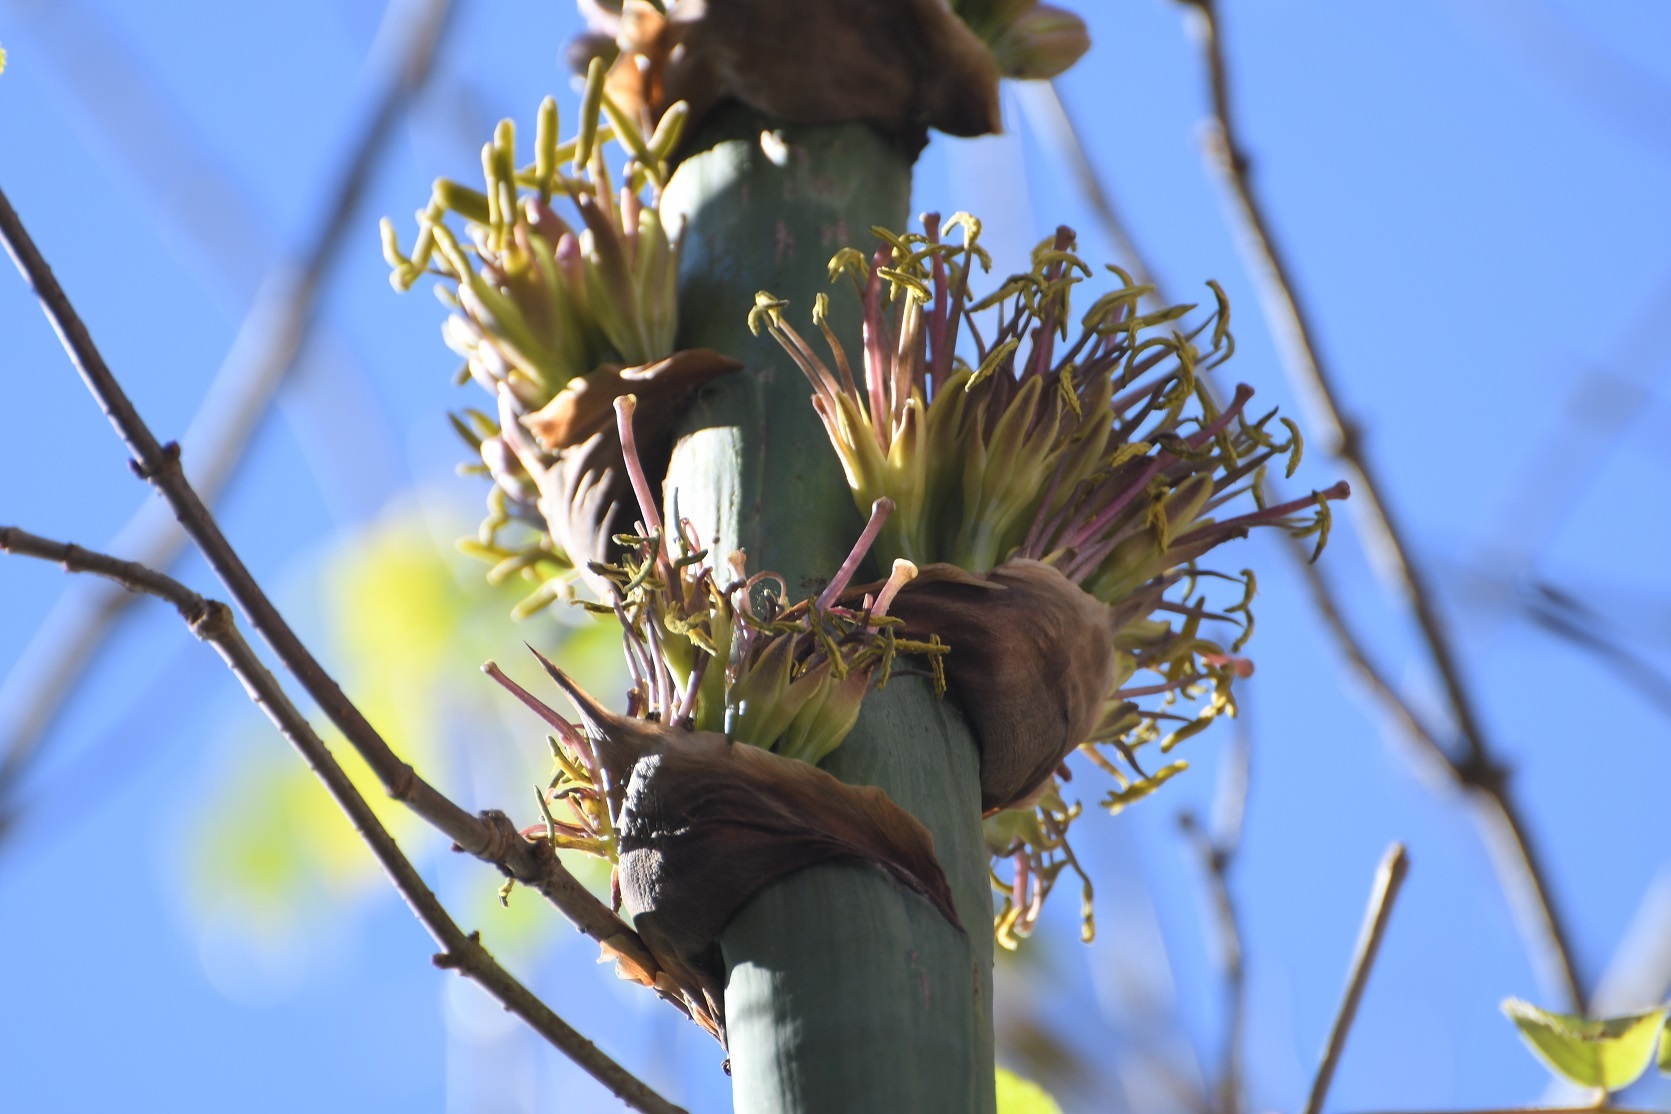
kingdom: Plantae
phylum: Tracheophyta
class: Liliopsida
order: Asparagales
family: Asparagaceae
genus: Agave
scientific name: Agave congesta
